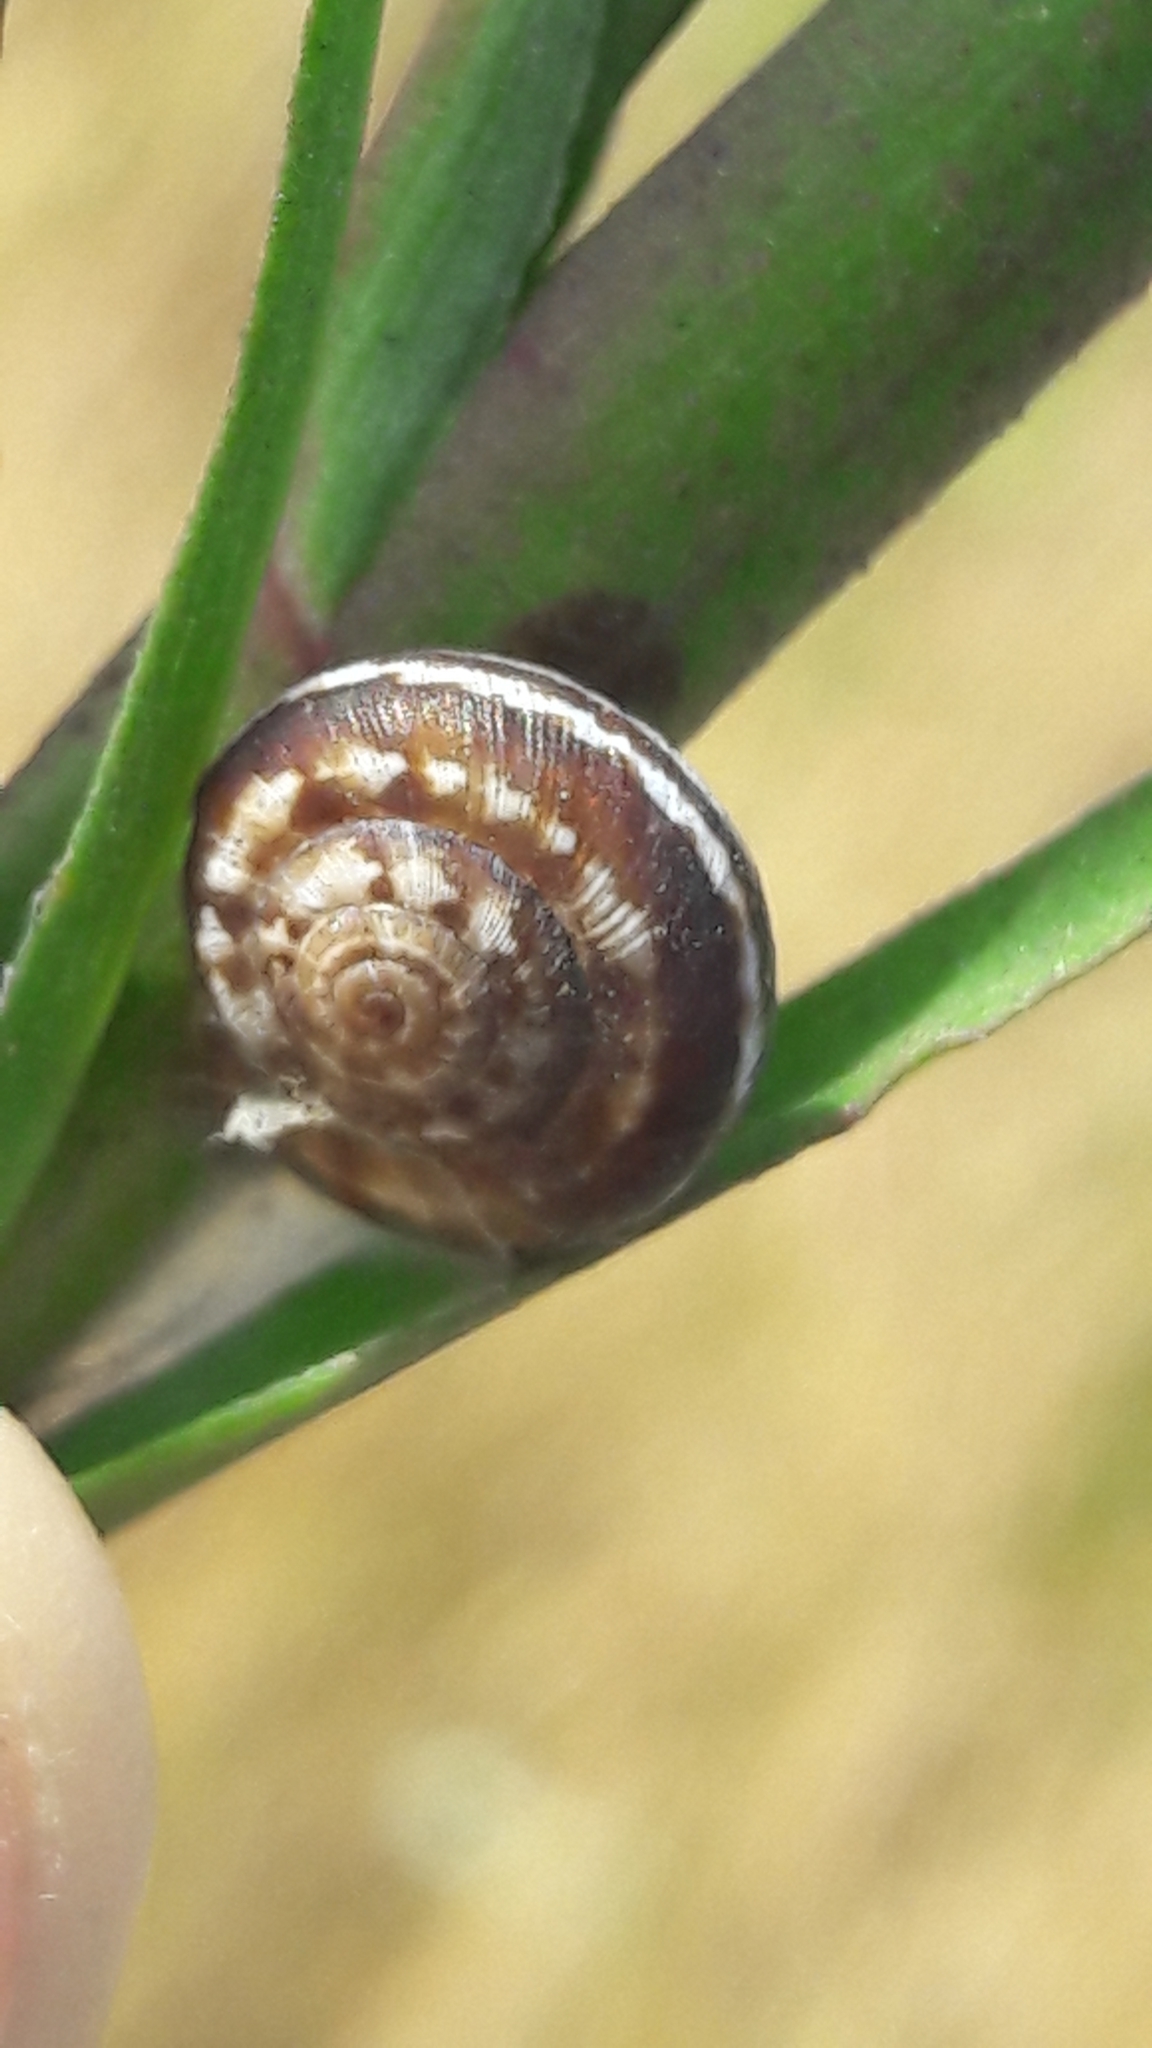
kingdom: Animalia
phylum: Mollusca
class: Gastropoda
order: Stylommatophora
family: Geomitridae
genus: Xeropicta
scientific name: Xeropicta krynickii
